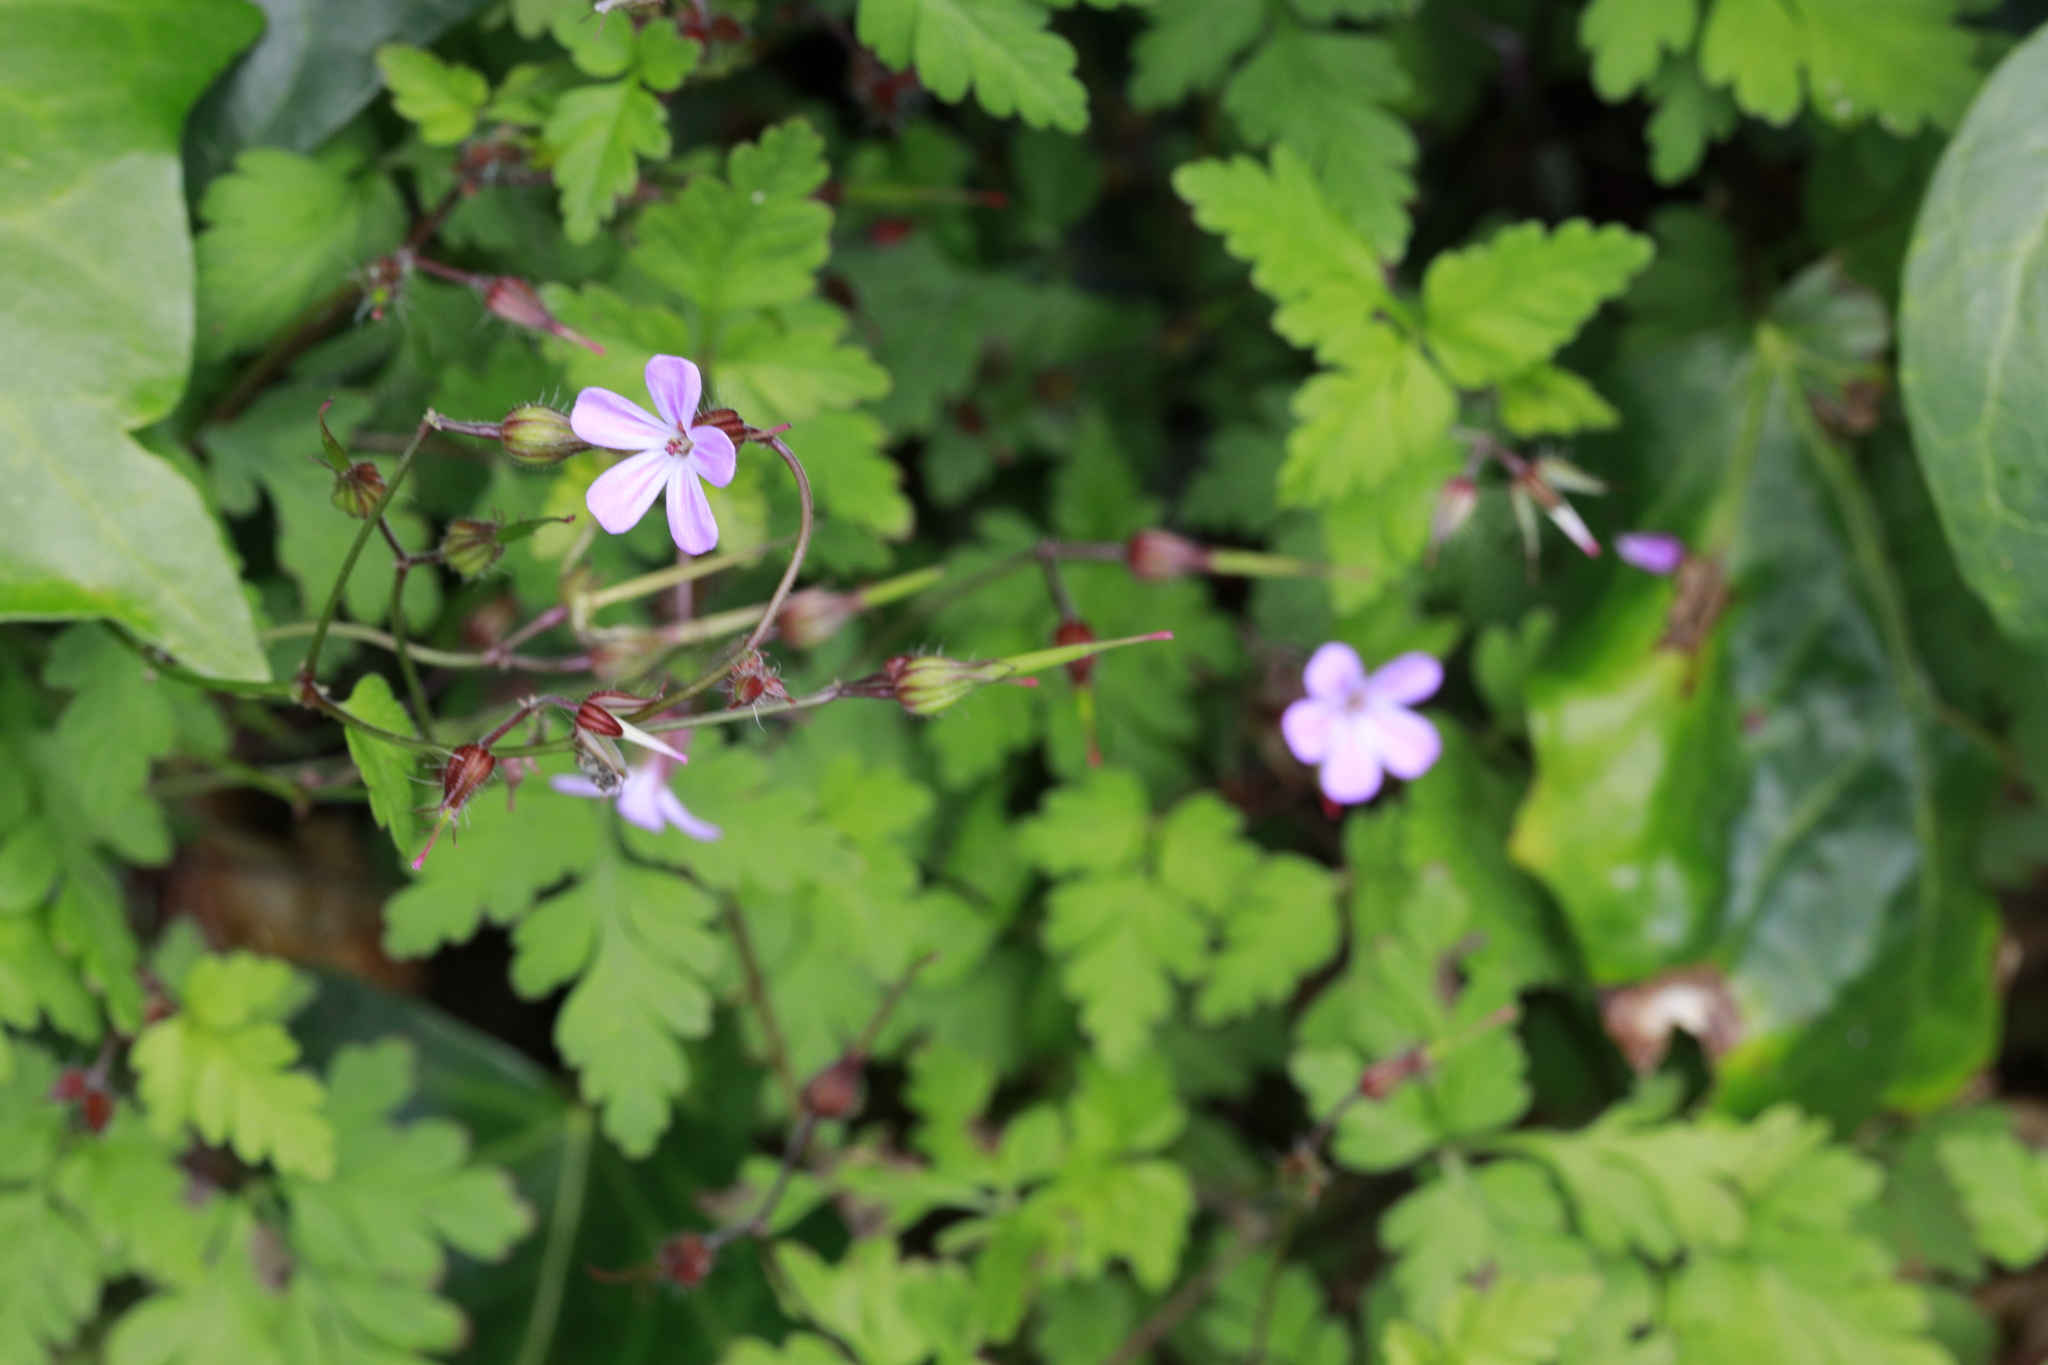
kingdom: Plantae
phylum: Tracheophyta
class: Magnoliopsida
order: Geraniales
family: Geraniaceae
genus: Geranium
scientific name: Geranium robertianum
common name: Herb-robert
